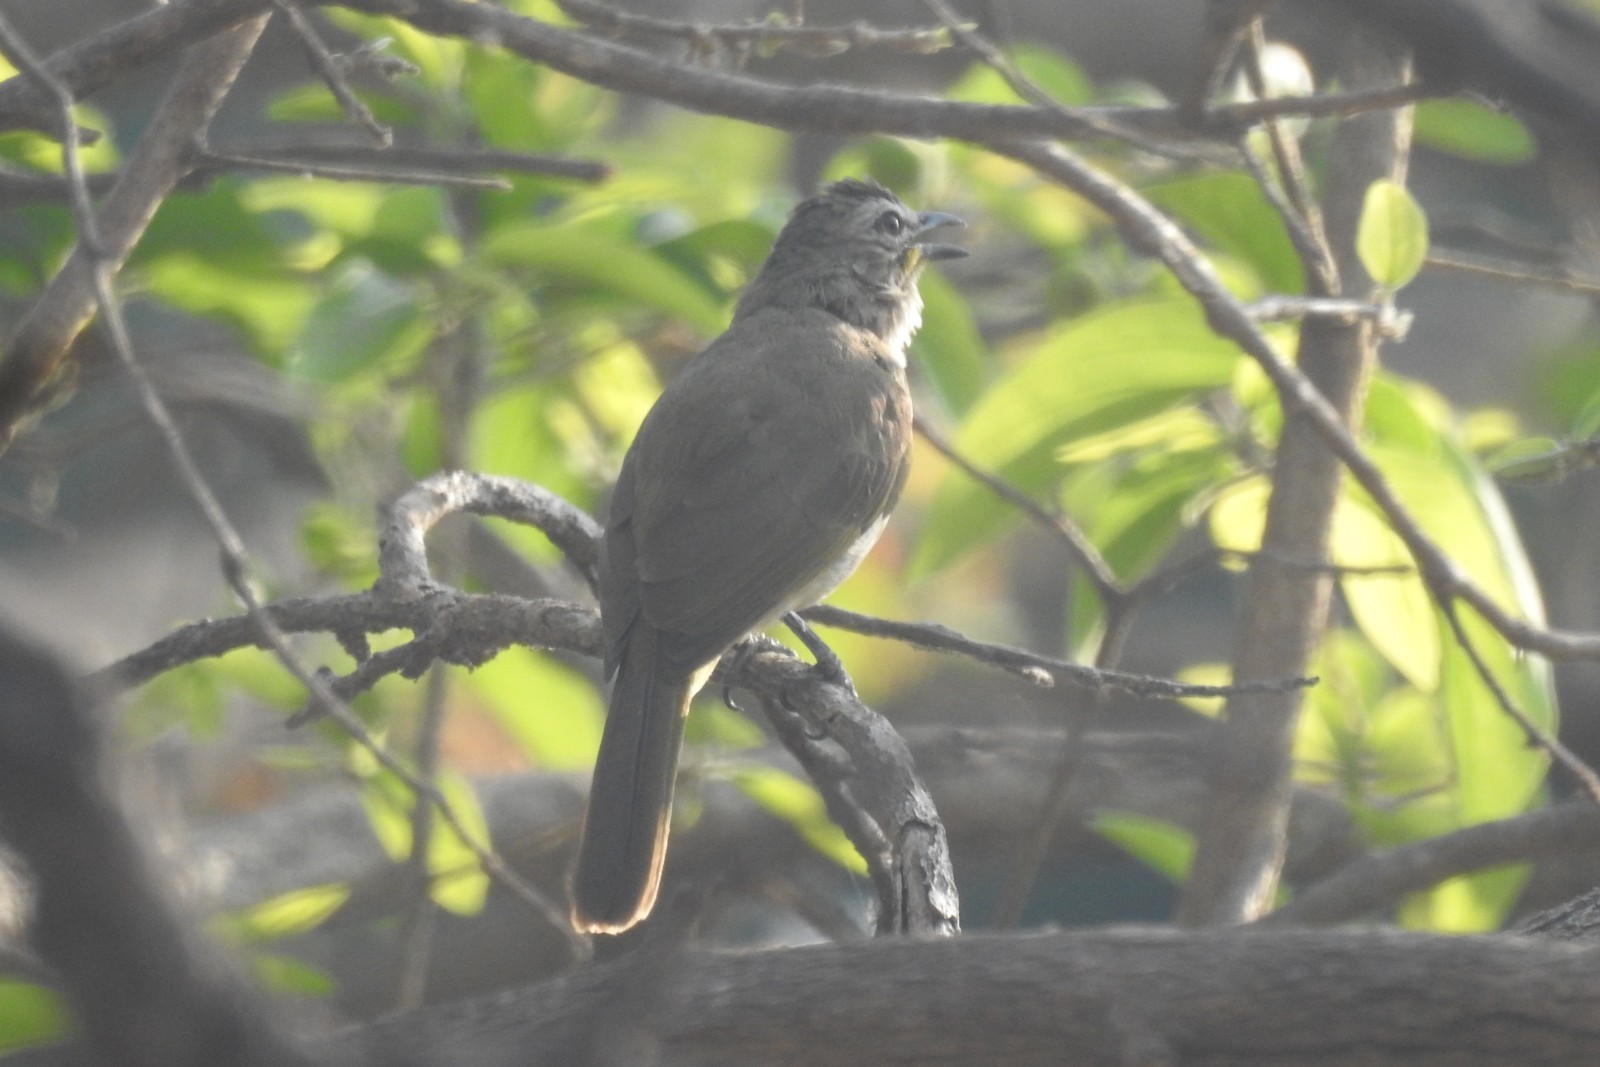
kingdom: Animalia
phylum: Chordata
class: Aves
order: Passeriformes
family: Pycnonotidae
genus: Pycnonotus
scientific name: Pycnonotus luteolus
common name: White-browed bulbul
